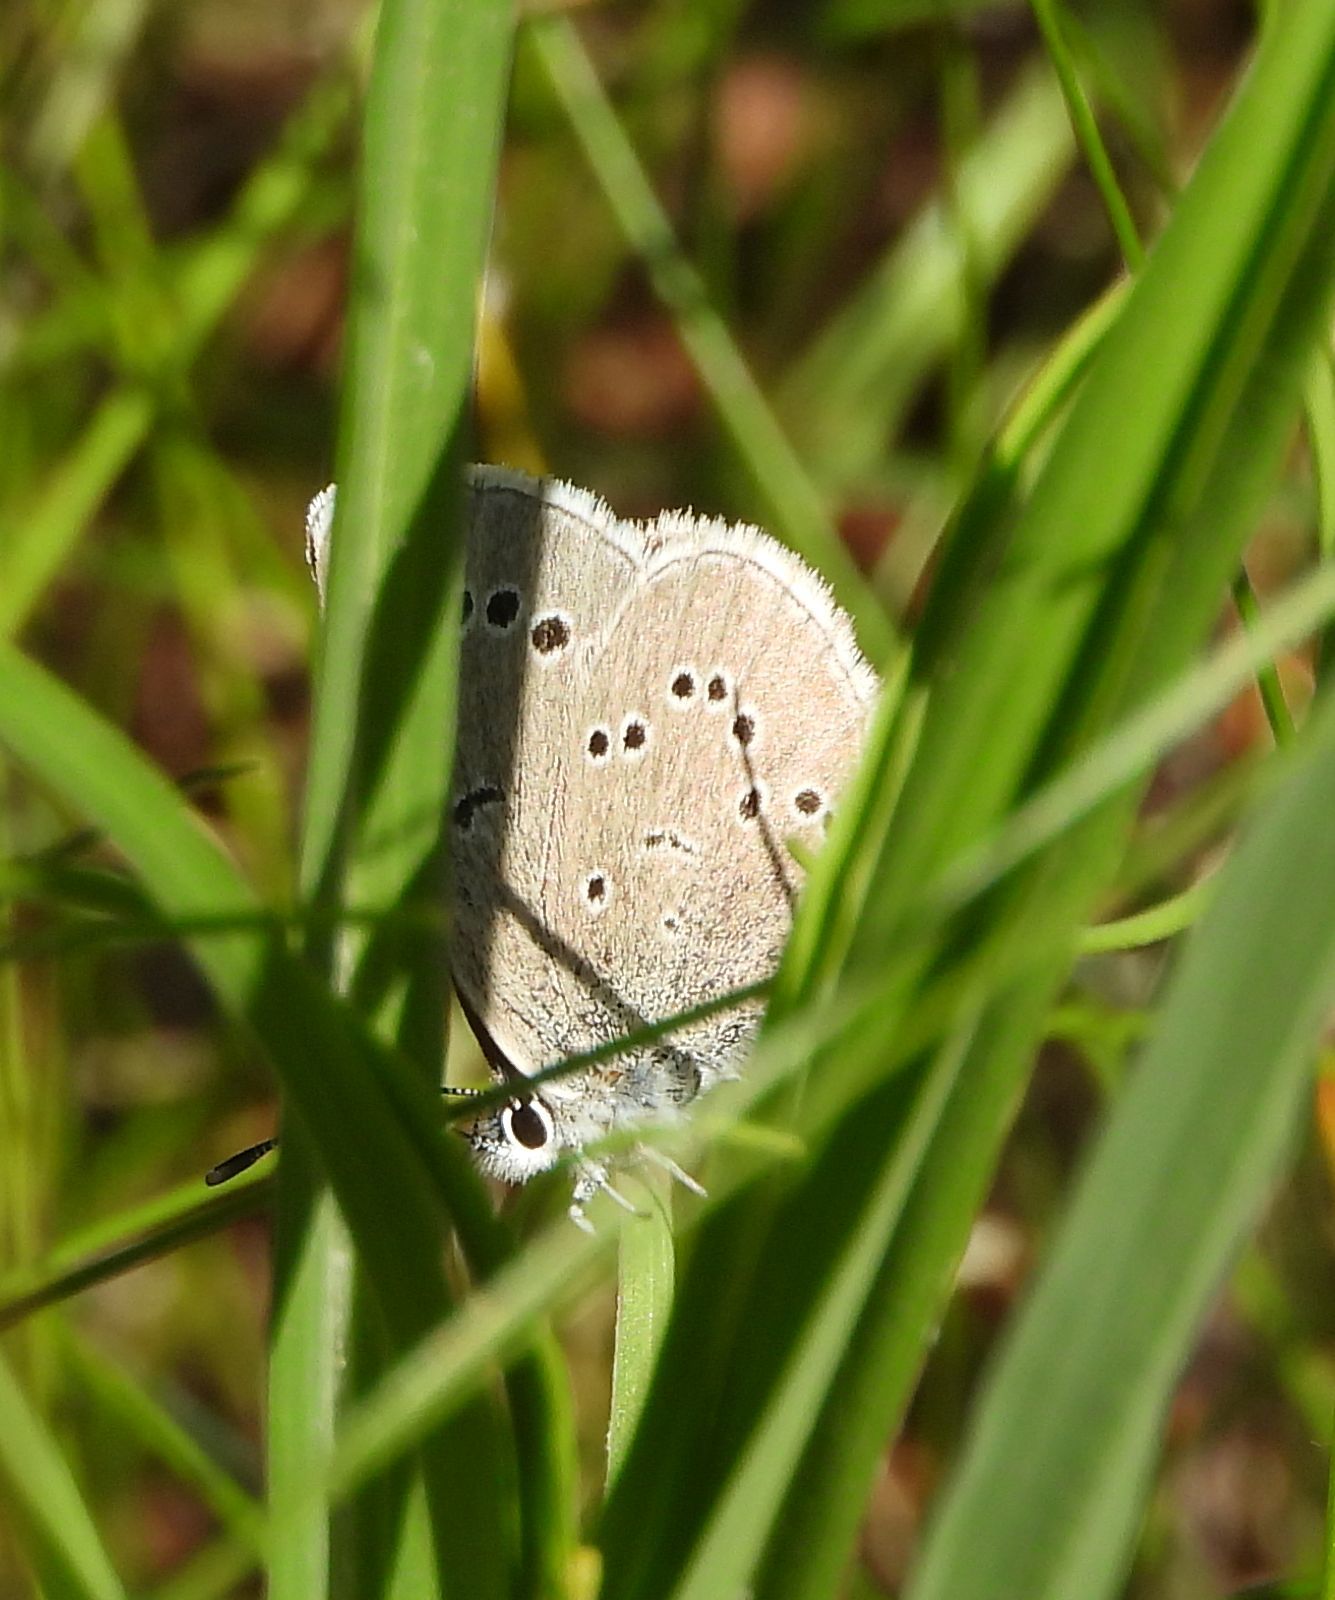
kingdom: Animalia
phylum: Arthropoda
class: Insecta
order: Lepidoptera
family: Lycaenidae
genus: Glaucopsyche
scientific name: Glaucopsyche lygdamus
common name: Silvery blue
